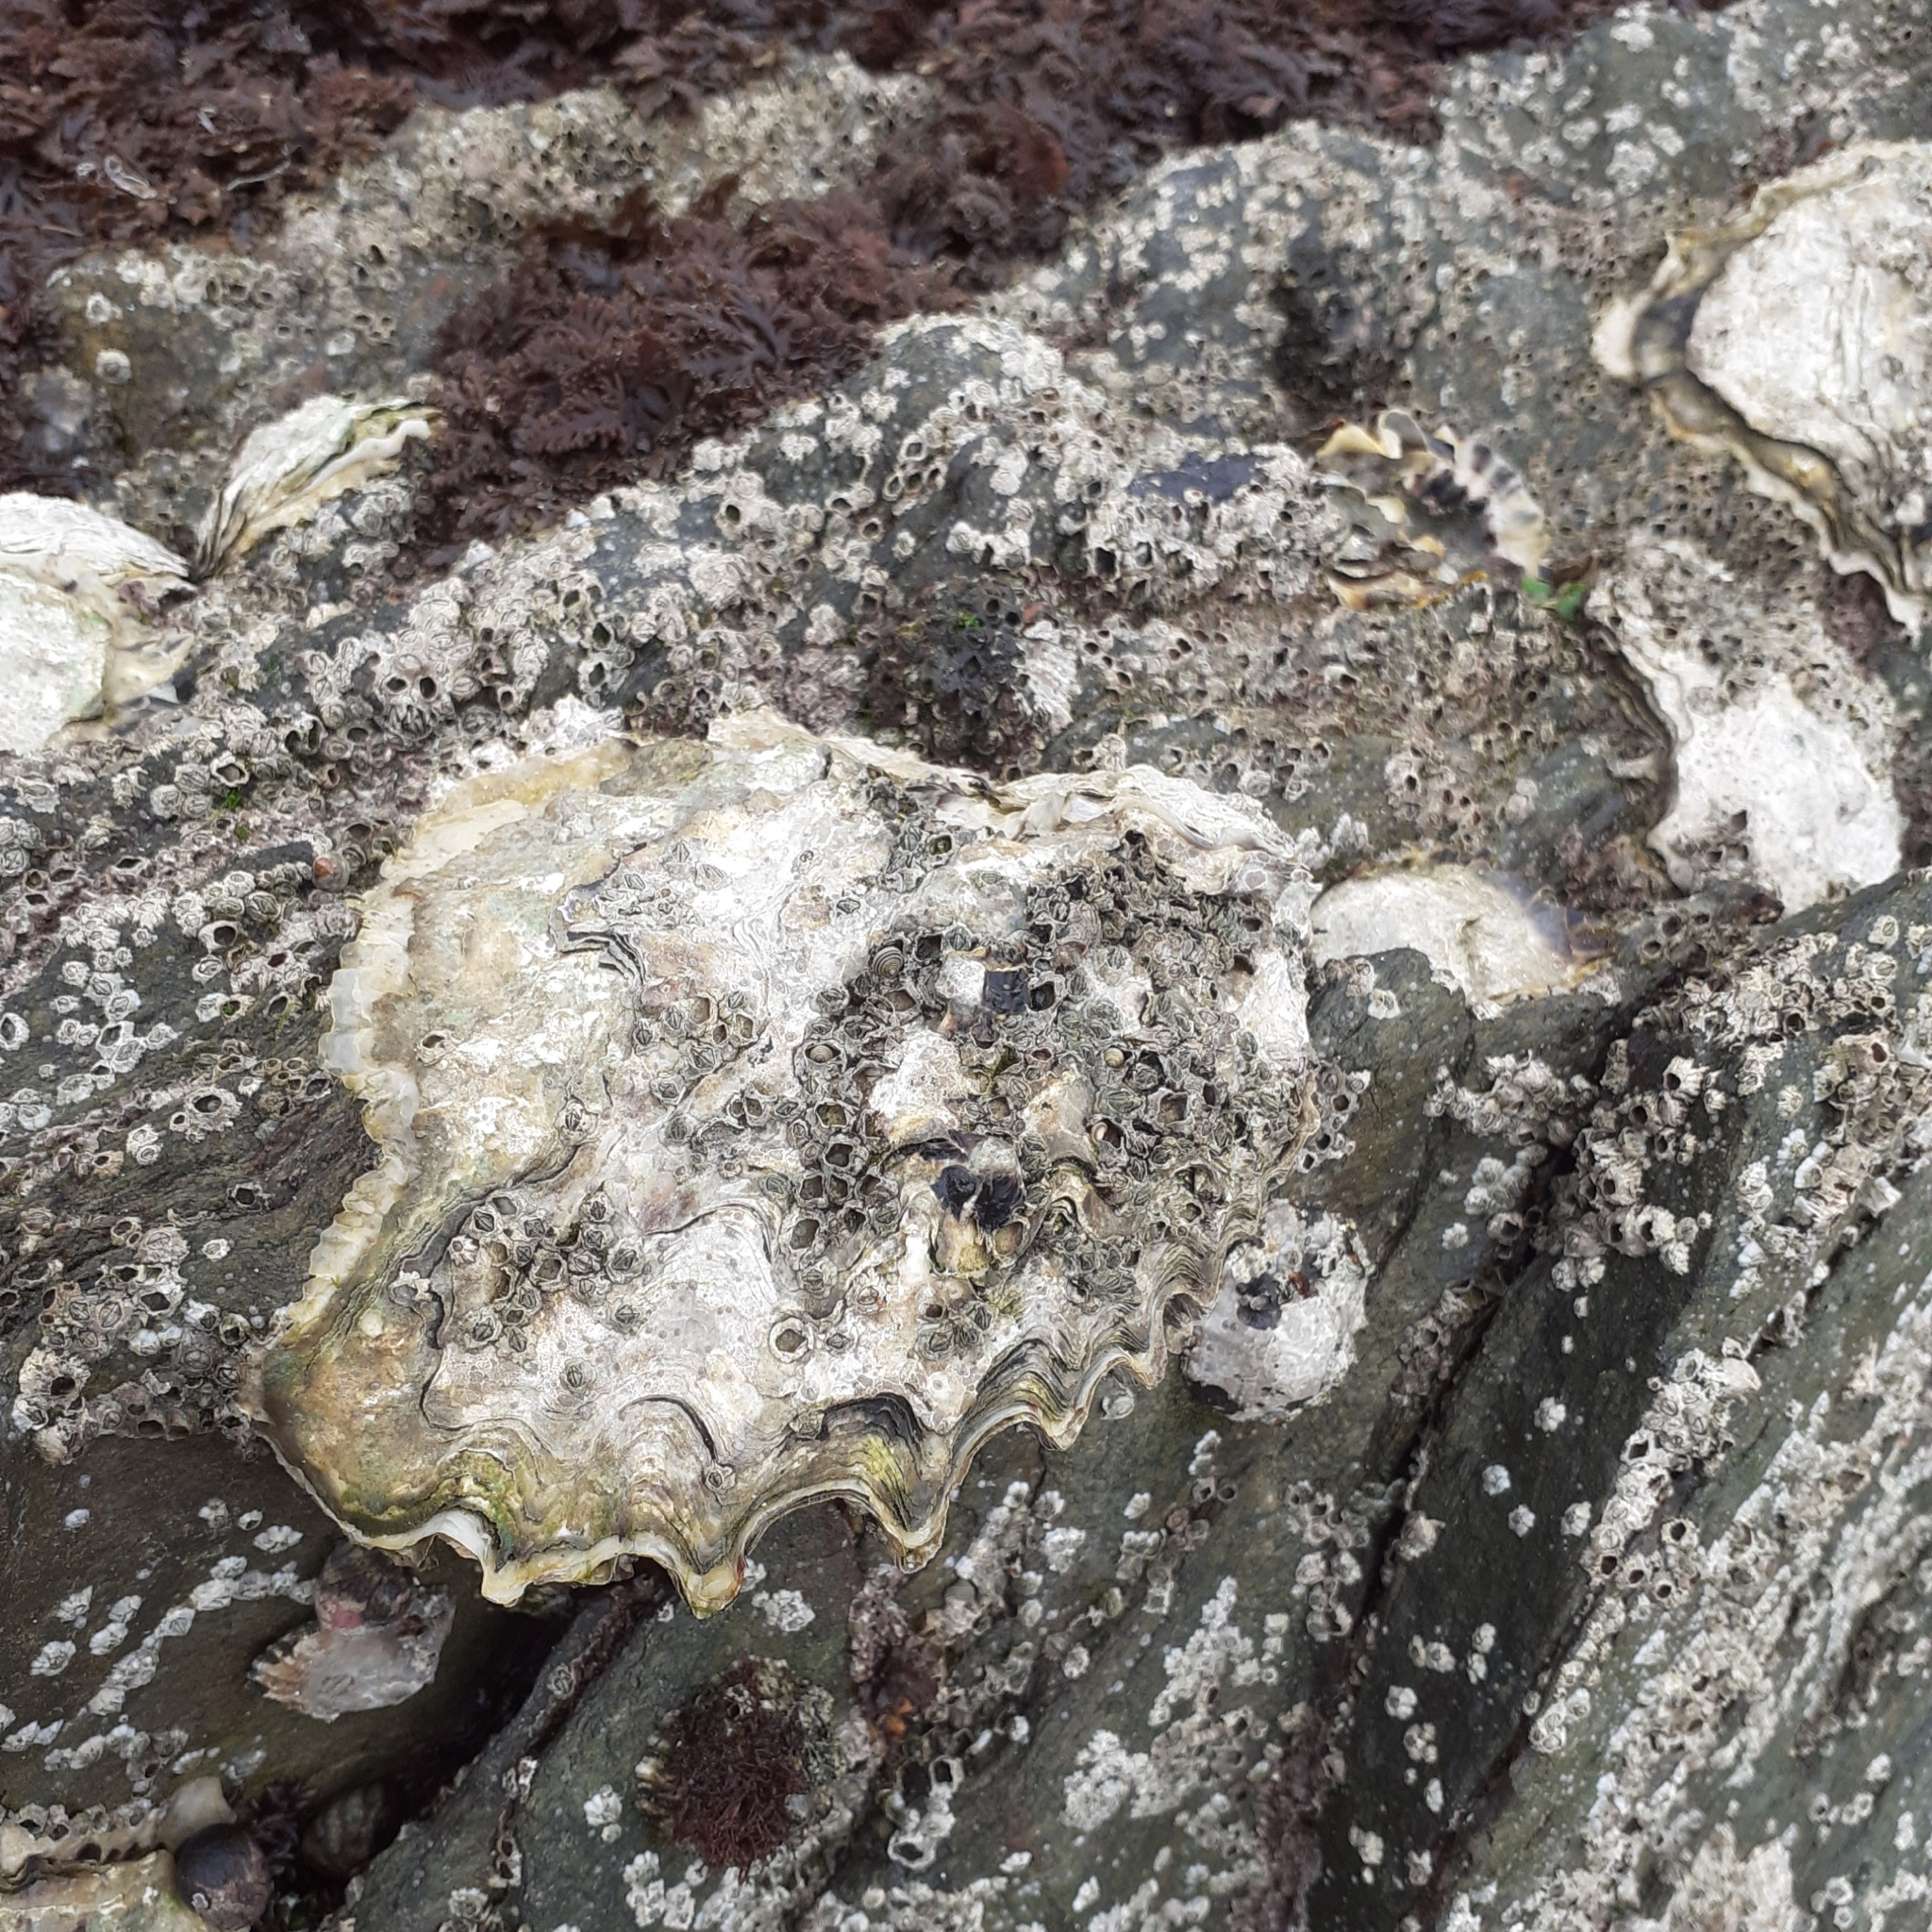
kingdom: Animalia
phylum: Mollusca
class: Bivalvia
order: Ostreida
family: Ostreidae
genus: Magallana
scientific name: Magallana gigas
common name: Pacific oyster
